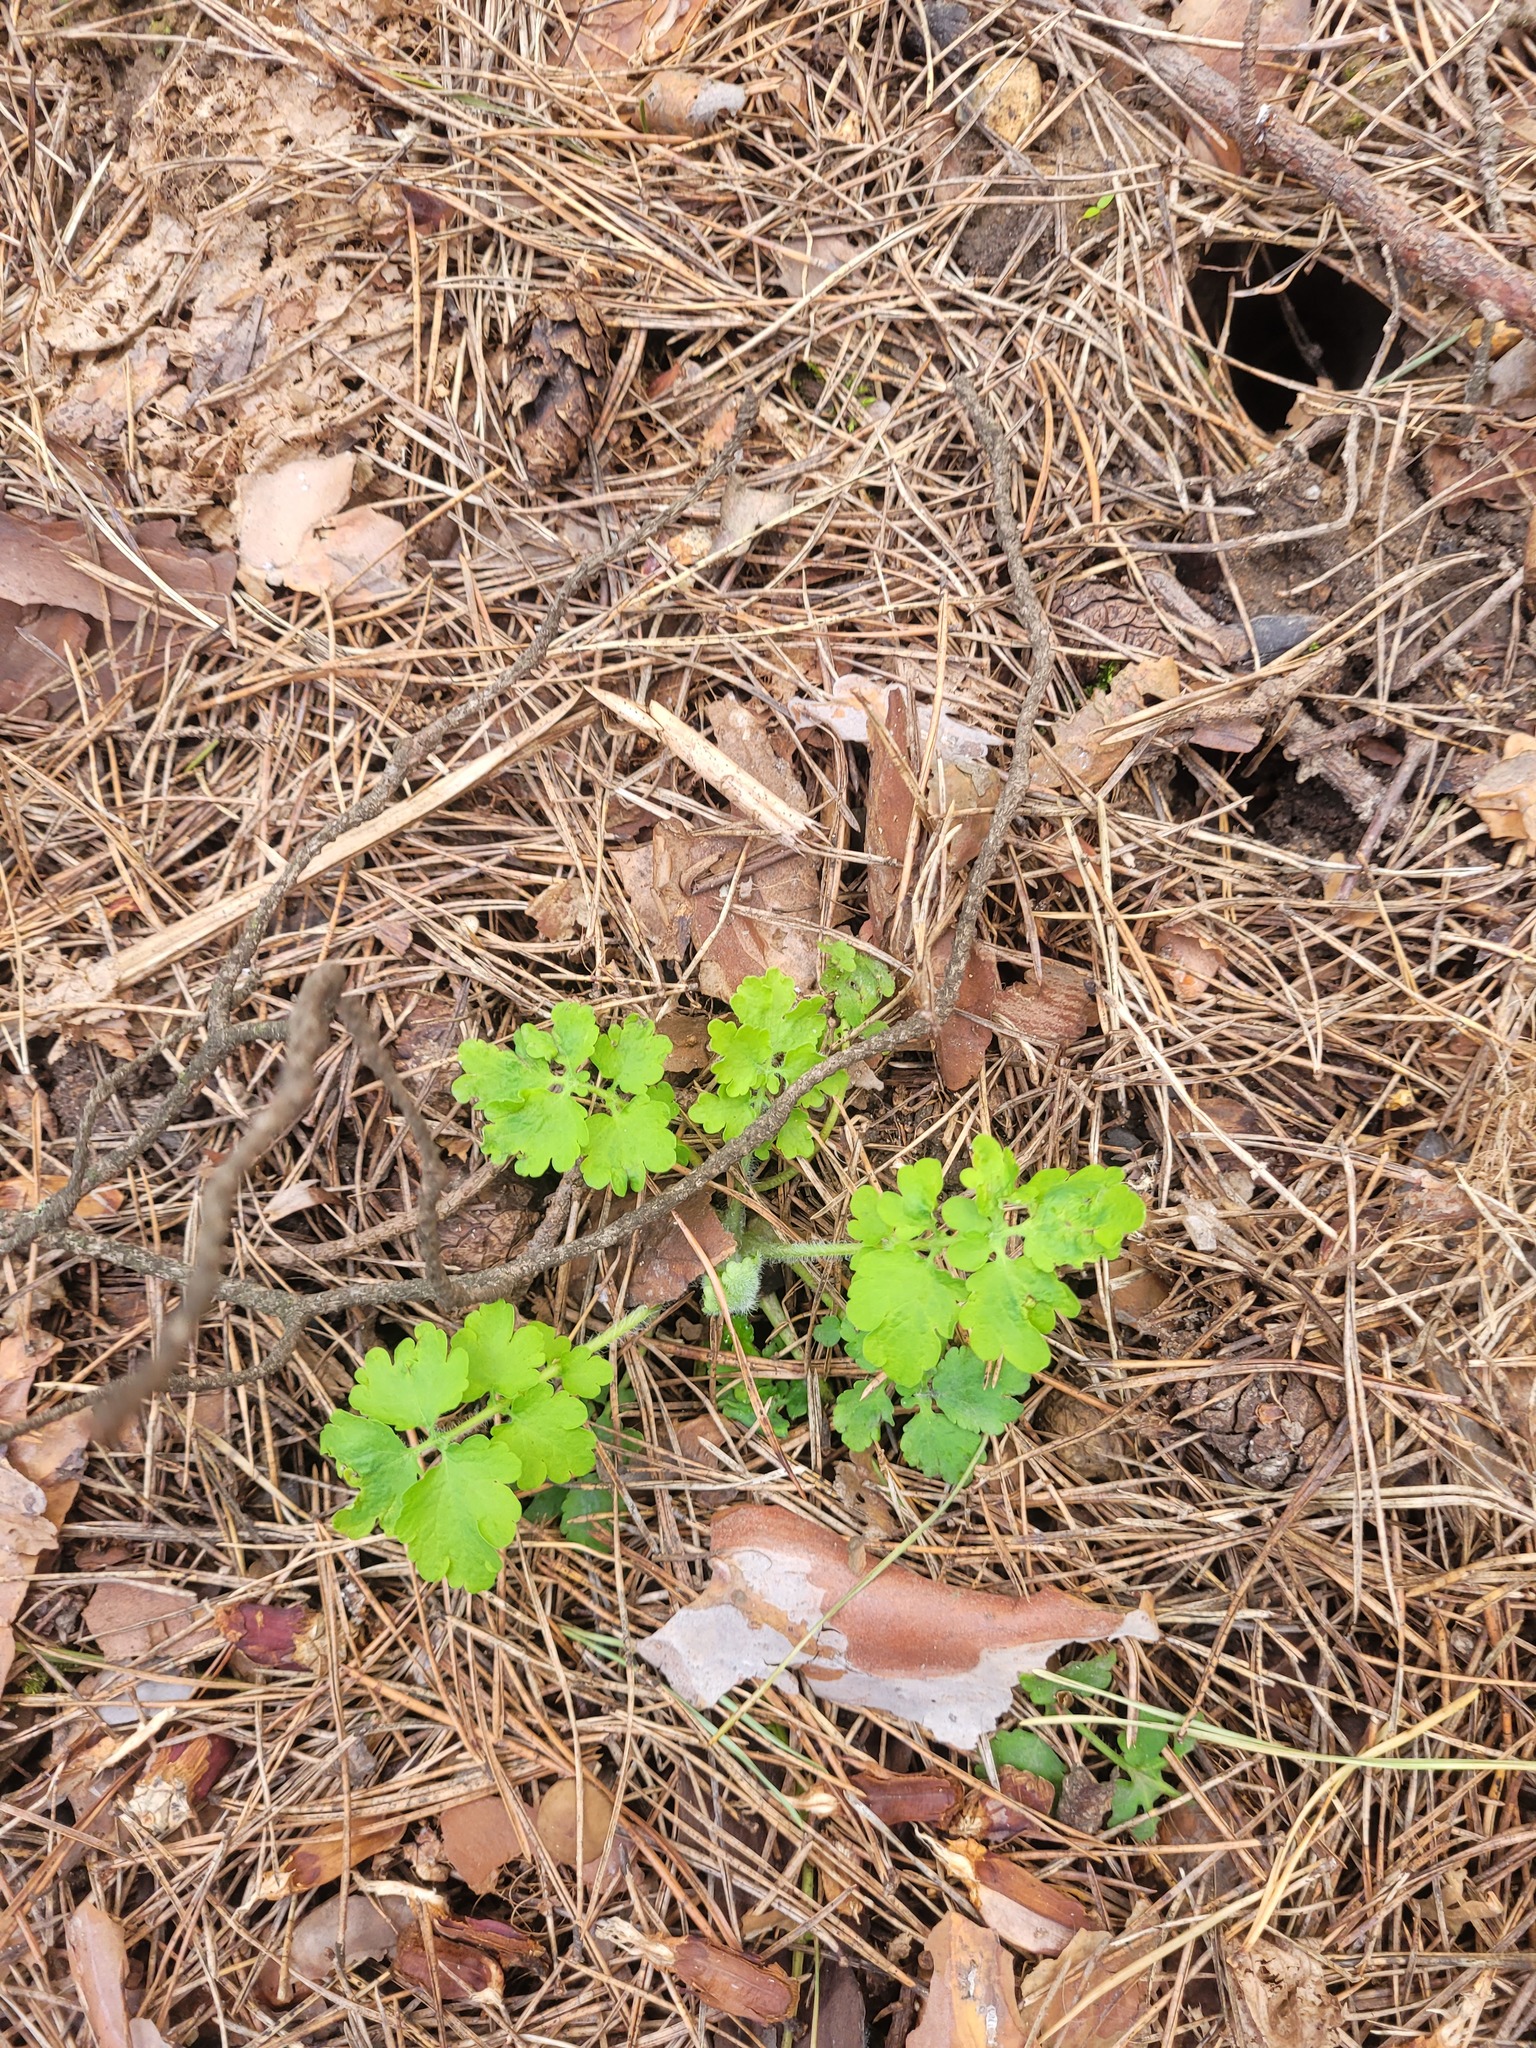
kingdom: Plantae
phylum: Tracheophyta
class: Magnoliopsida
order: Ranunculales
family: Papaveraceae
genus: Chelidonium
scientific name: Chelidonium majus
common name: Greater celandine
